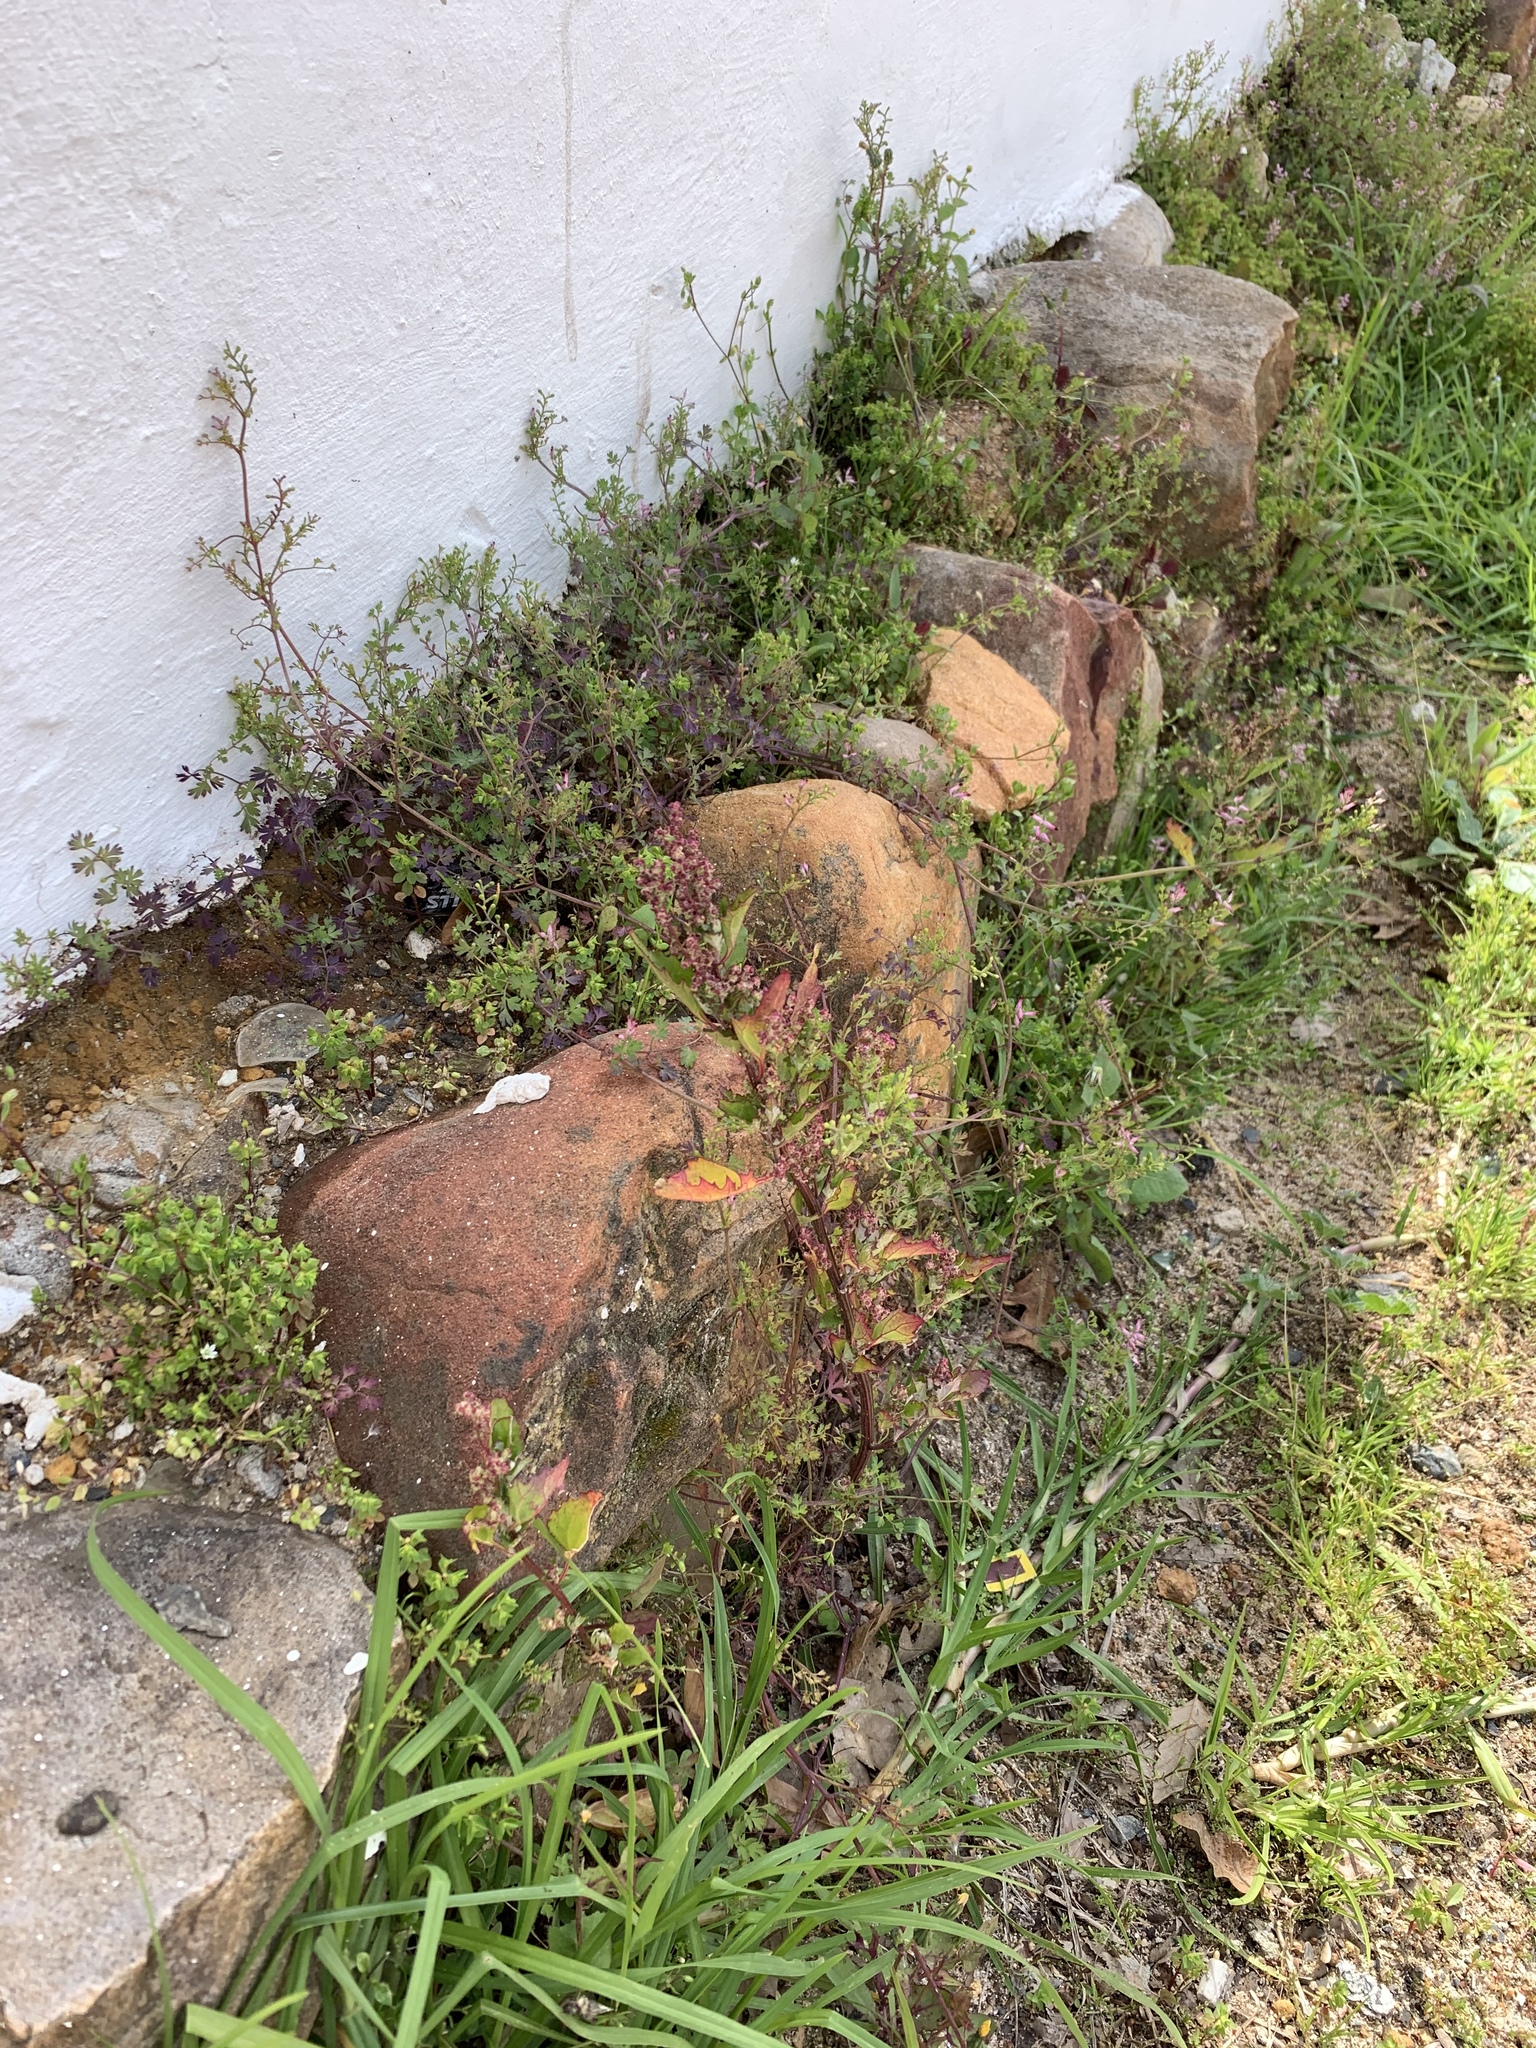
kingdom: Plantae
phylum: Tracheophyta
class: Magnoliopsida
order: Caryophyllales
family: Amaranthaceae
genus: Chenopodiastrum
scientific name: Chenopodiastrum murale
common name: Sowbane
